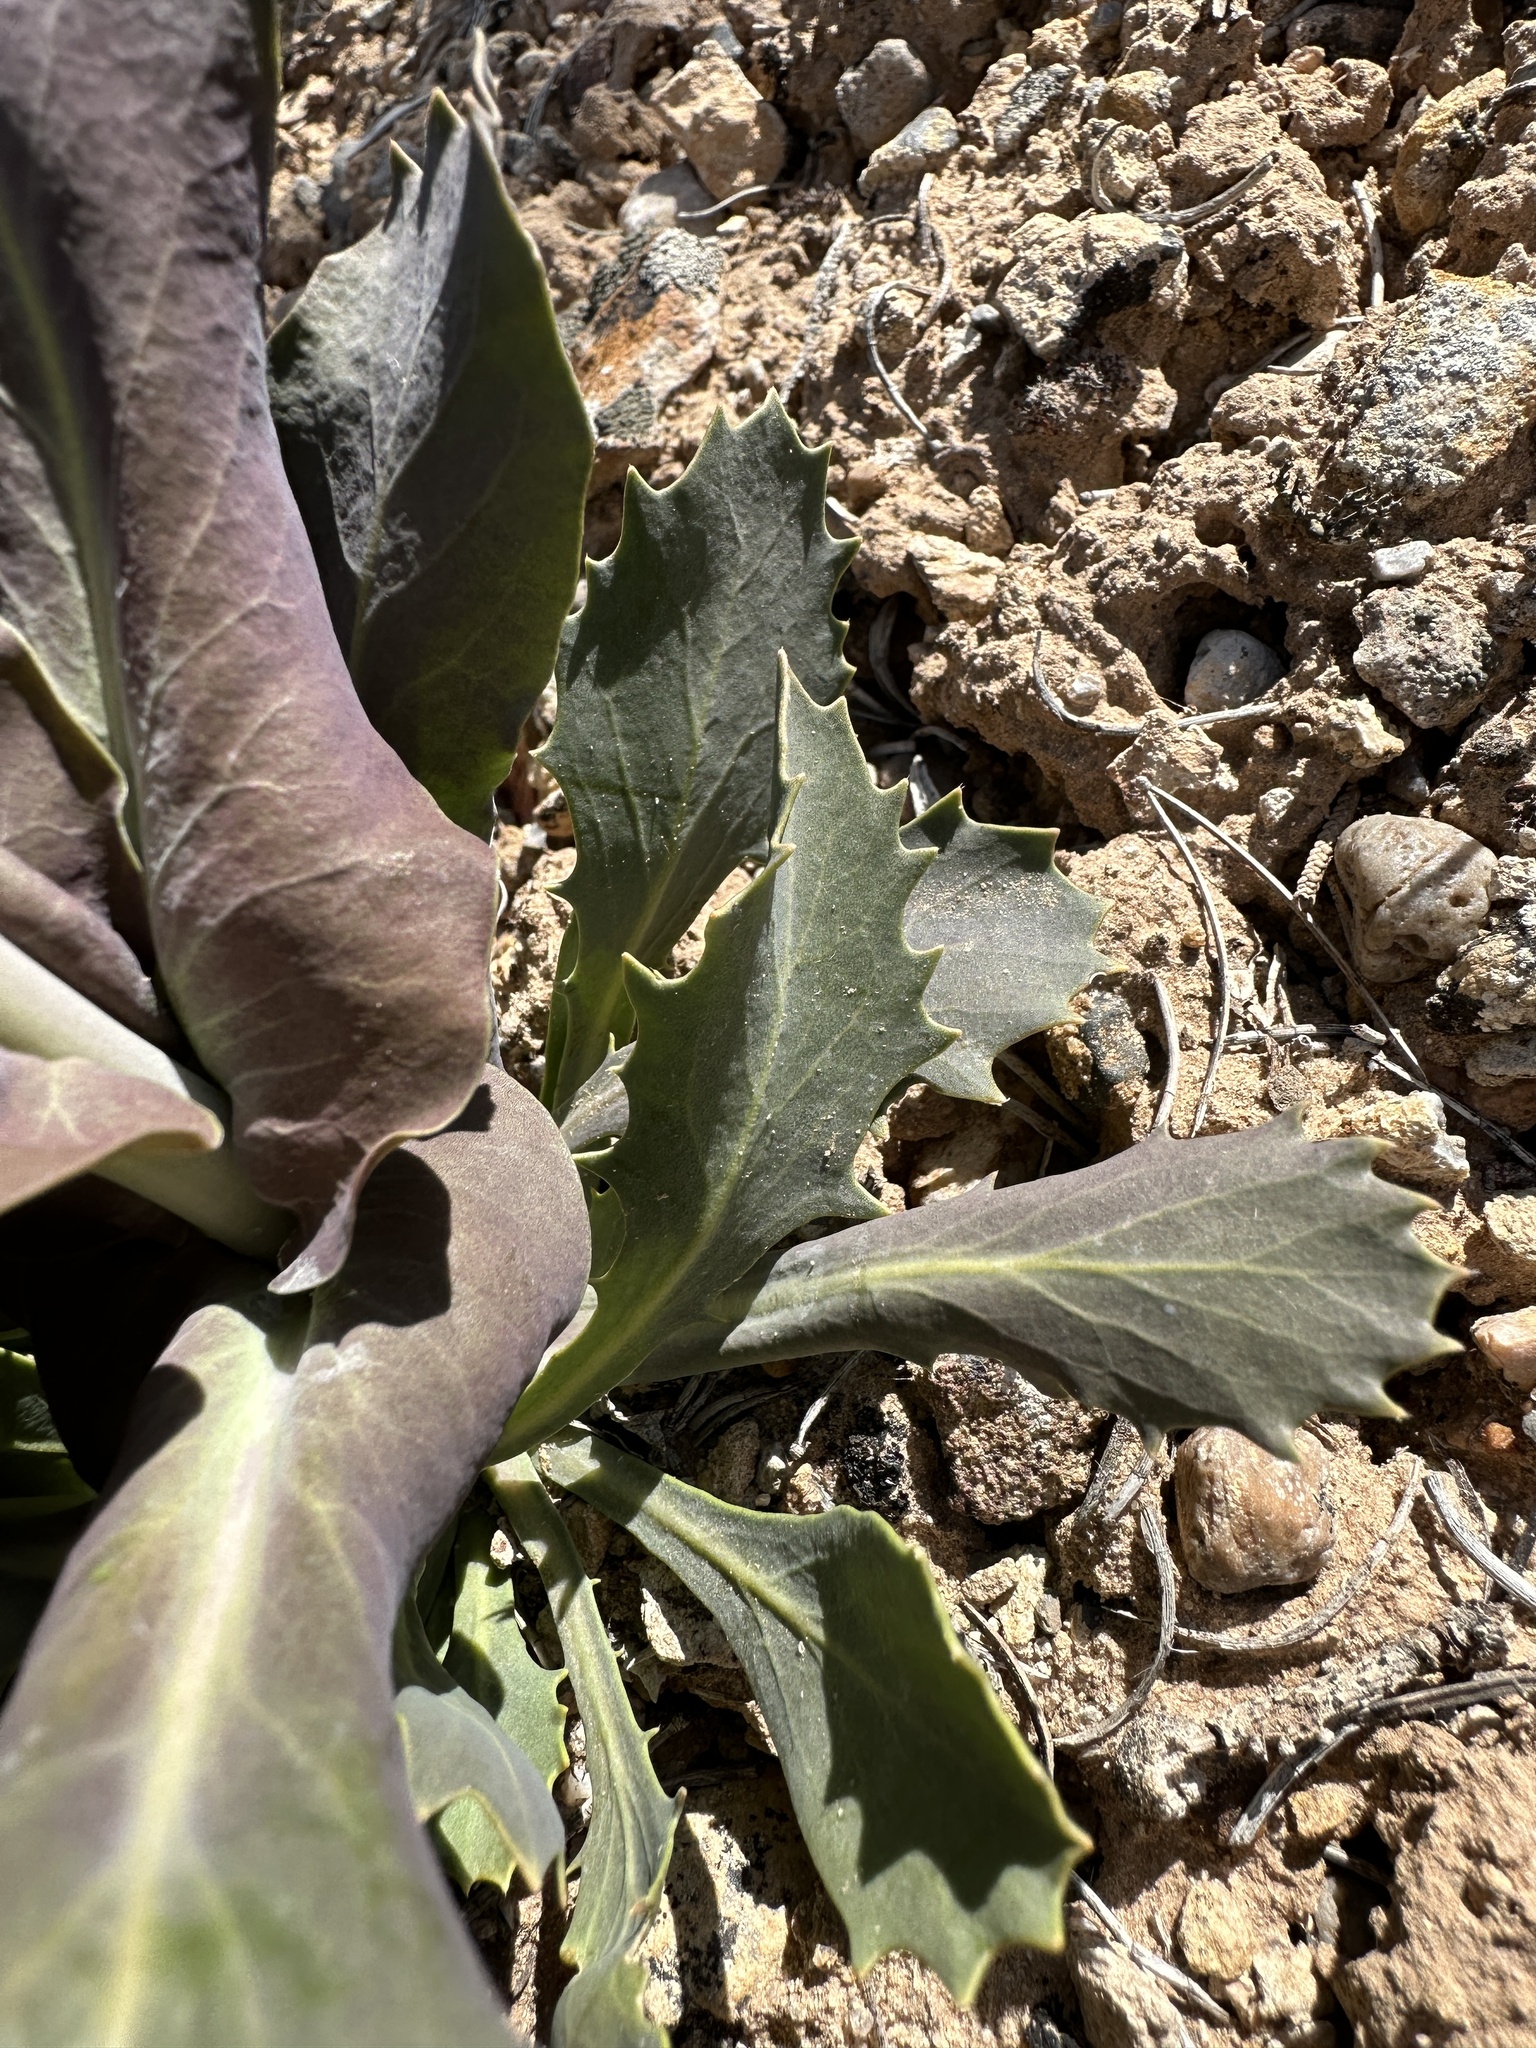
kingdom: Plantae
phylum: Tracheophyta
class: Magnoliopsida
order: Brassicales
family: Brassicaceae
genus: Streptanthus
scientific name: Streptanthus cordatus
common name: Heart-leaf jewel-flower
